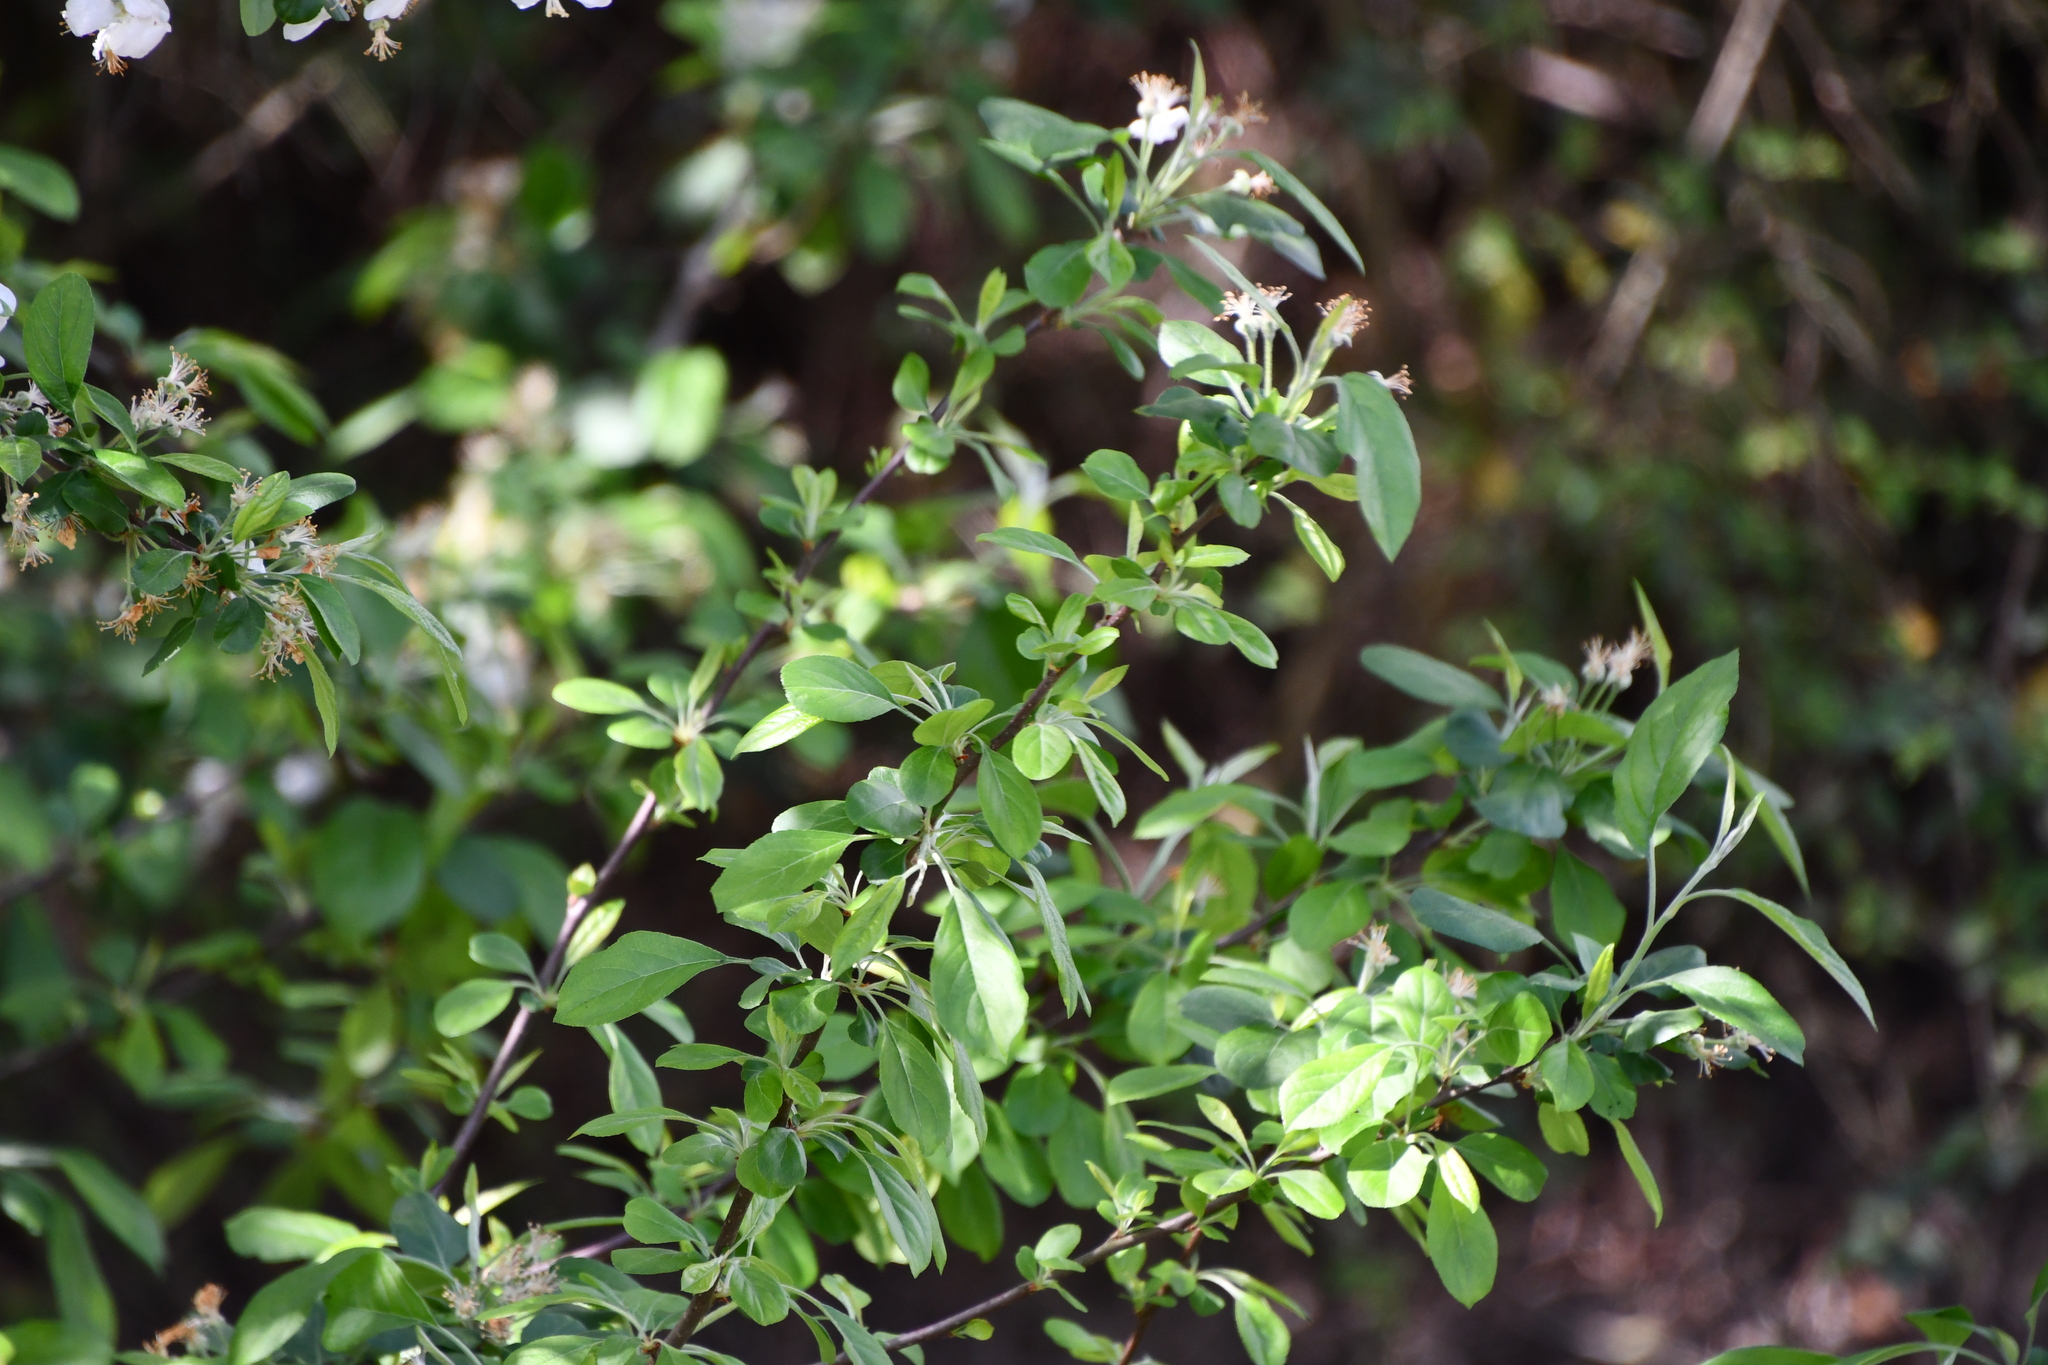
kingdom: Plantae
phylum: Tracheophyta
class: Magnoliopsida
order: Rosales
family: Rosaceae
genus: Malus
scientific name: Malus domestica
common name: Apple
